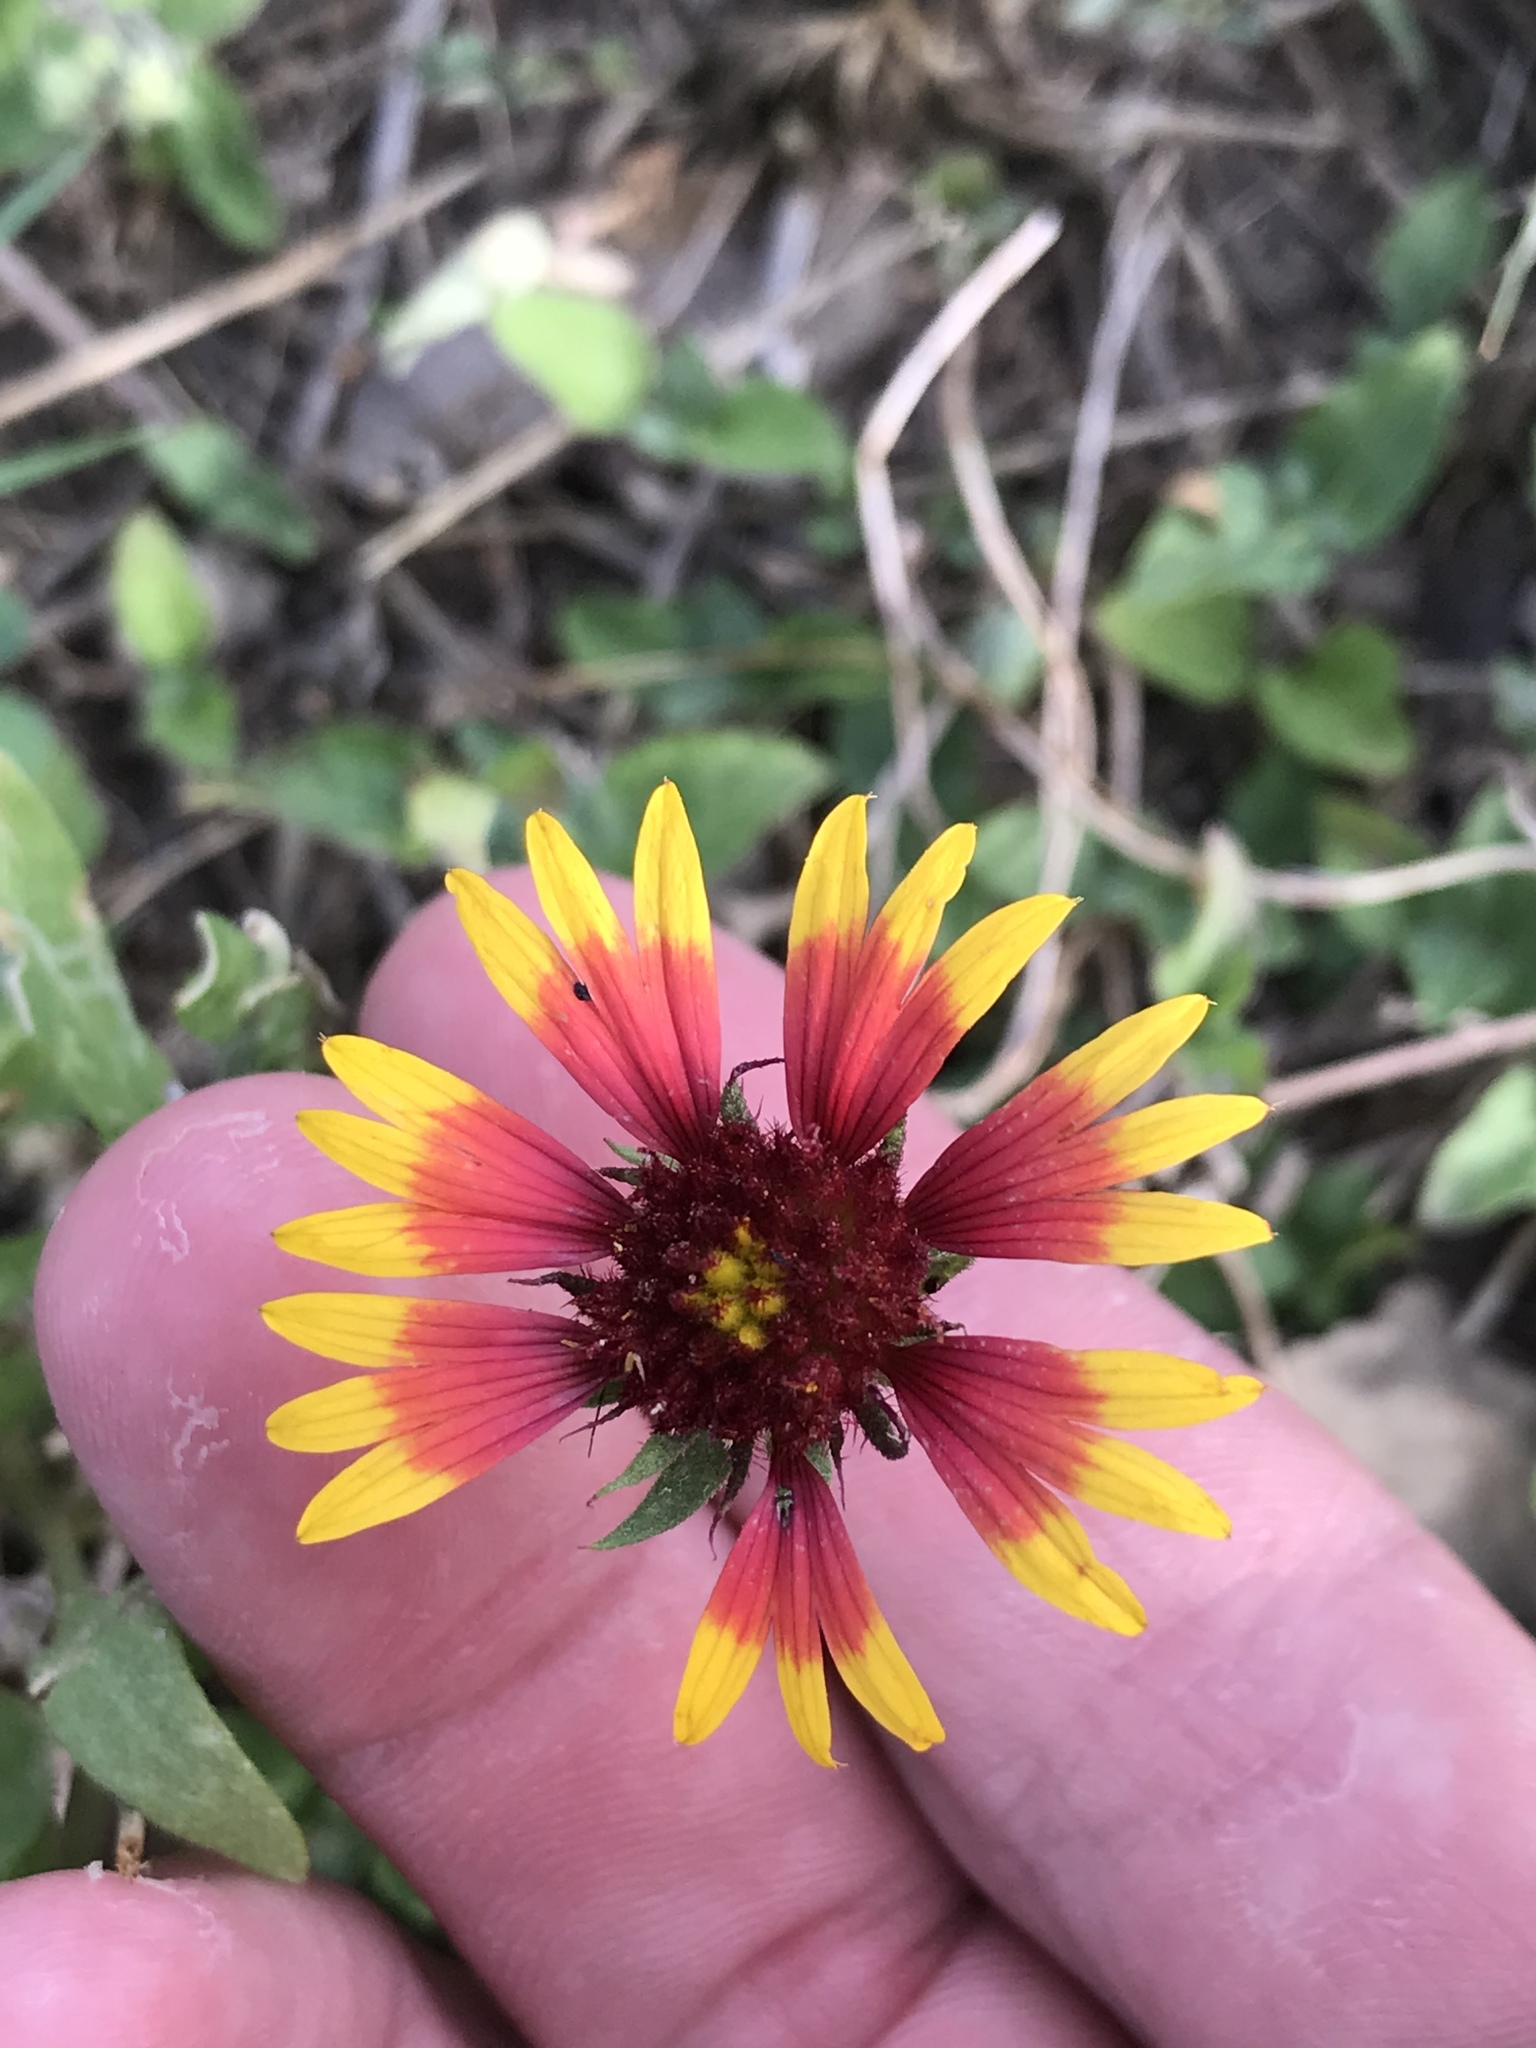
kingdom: Plantae
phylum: Tracheophyta
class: Magnoliopsida
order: Asterales
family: Asteraceae
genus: Gaillardia
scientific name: Gaillardia pulchella
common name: Firewheel
